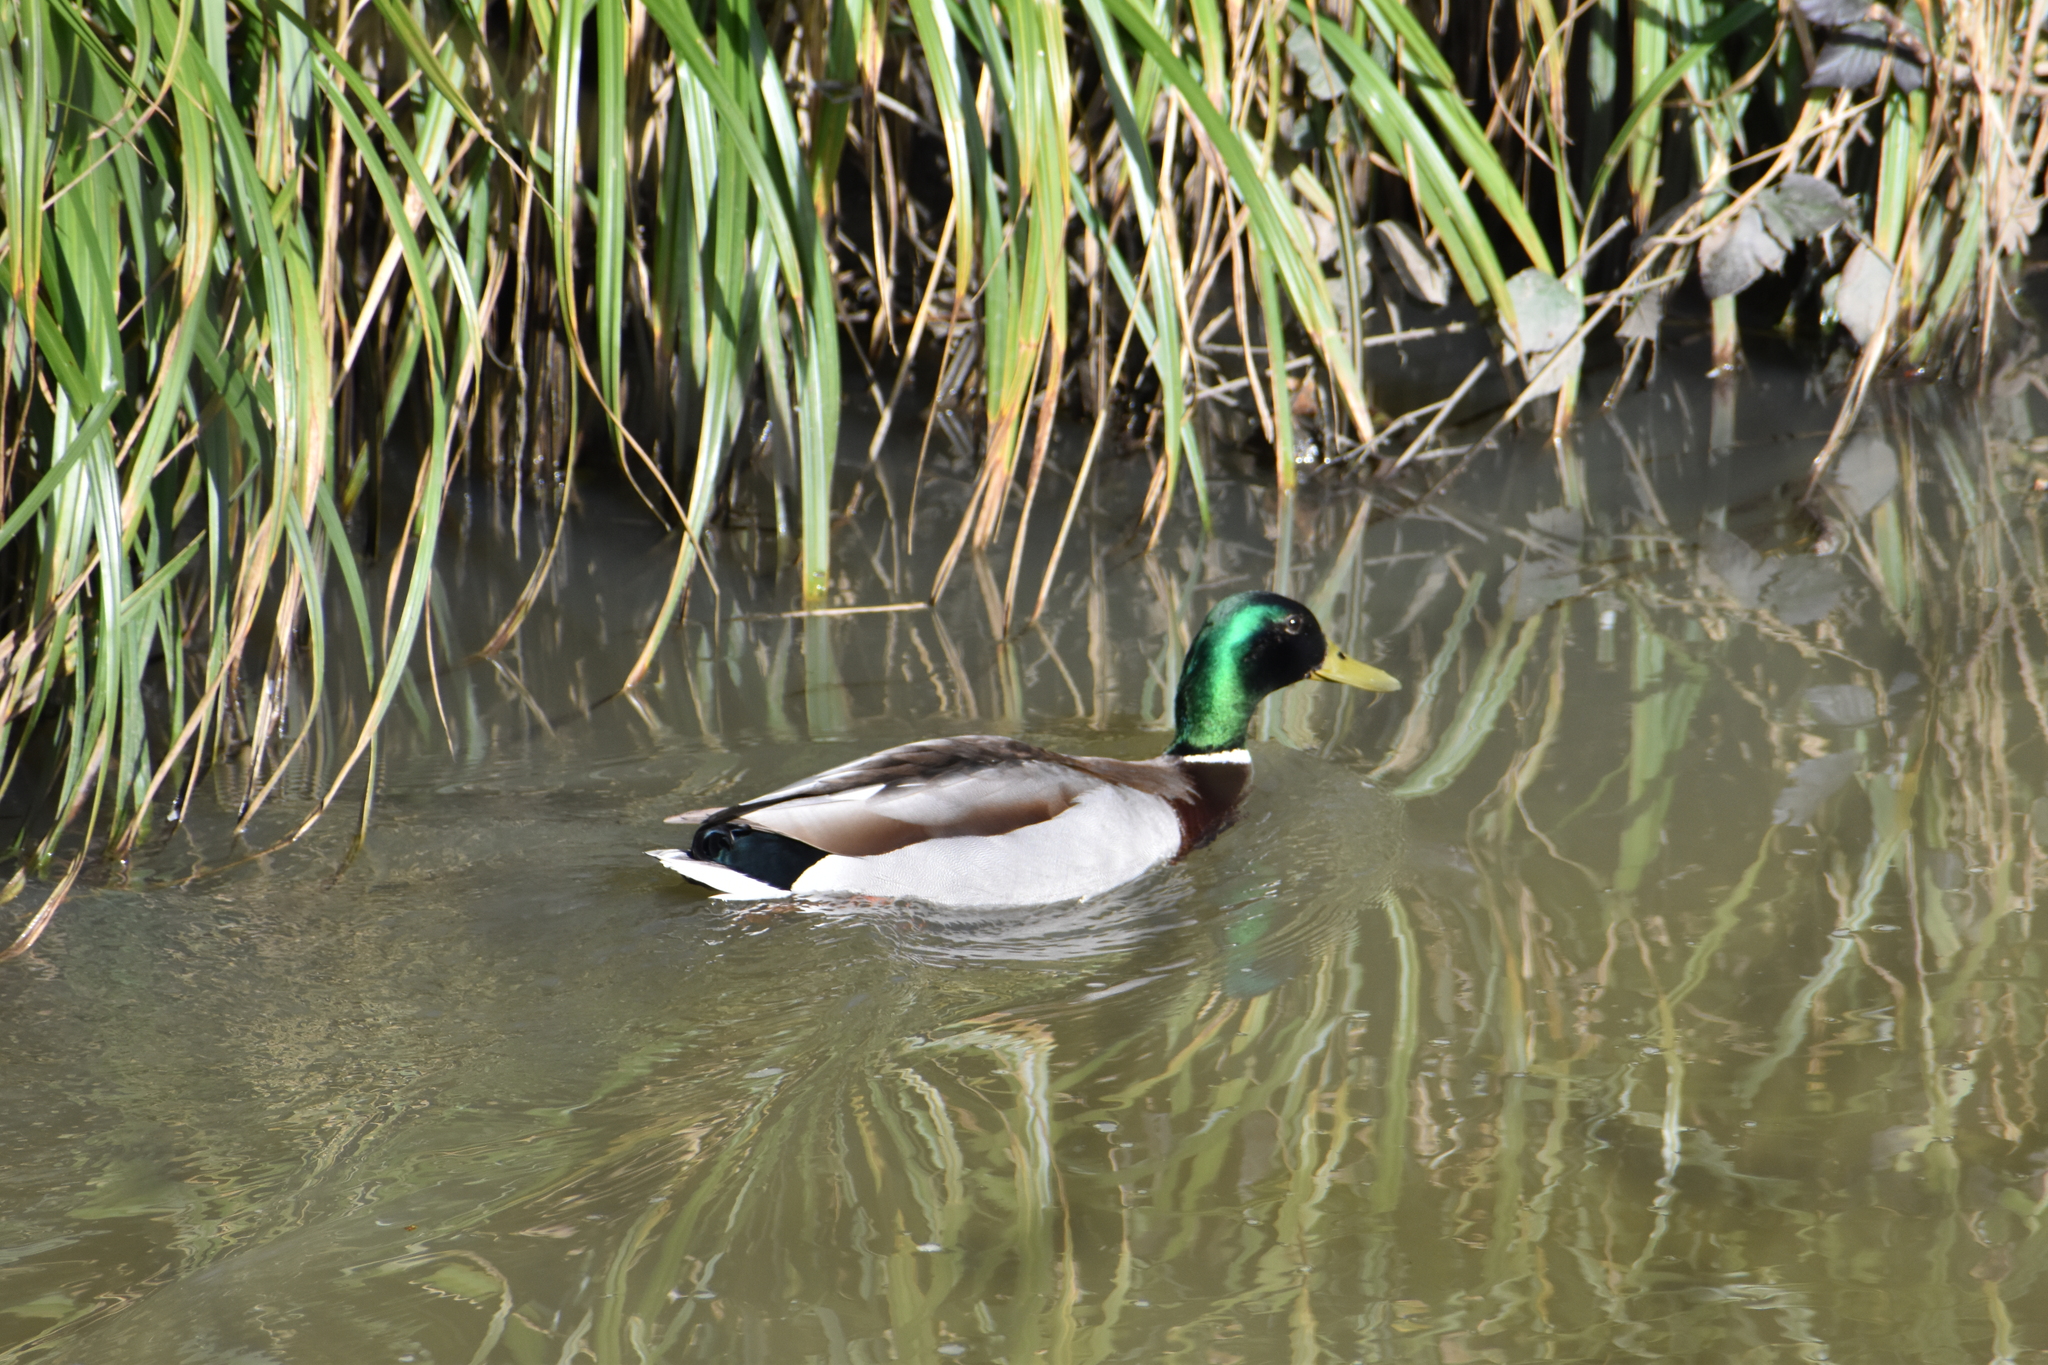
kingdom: Animalia
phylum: Chordata
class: Aves
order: Anseriformes
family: Anatidae
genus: Anas
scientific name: Anas platyrhynchos
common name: Mallard
